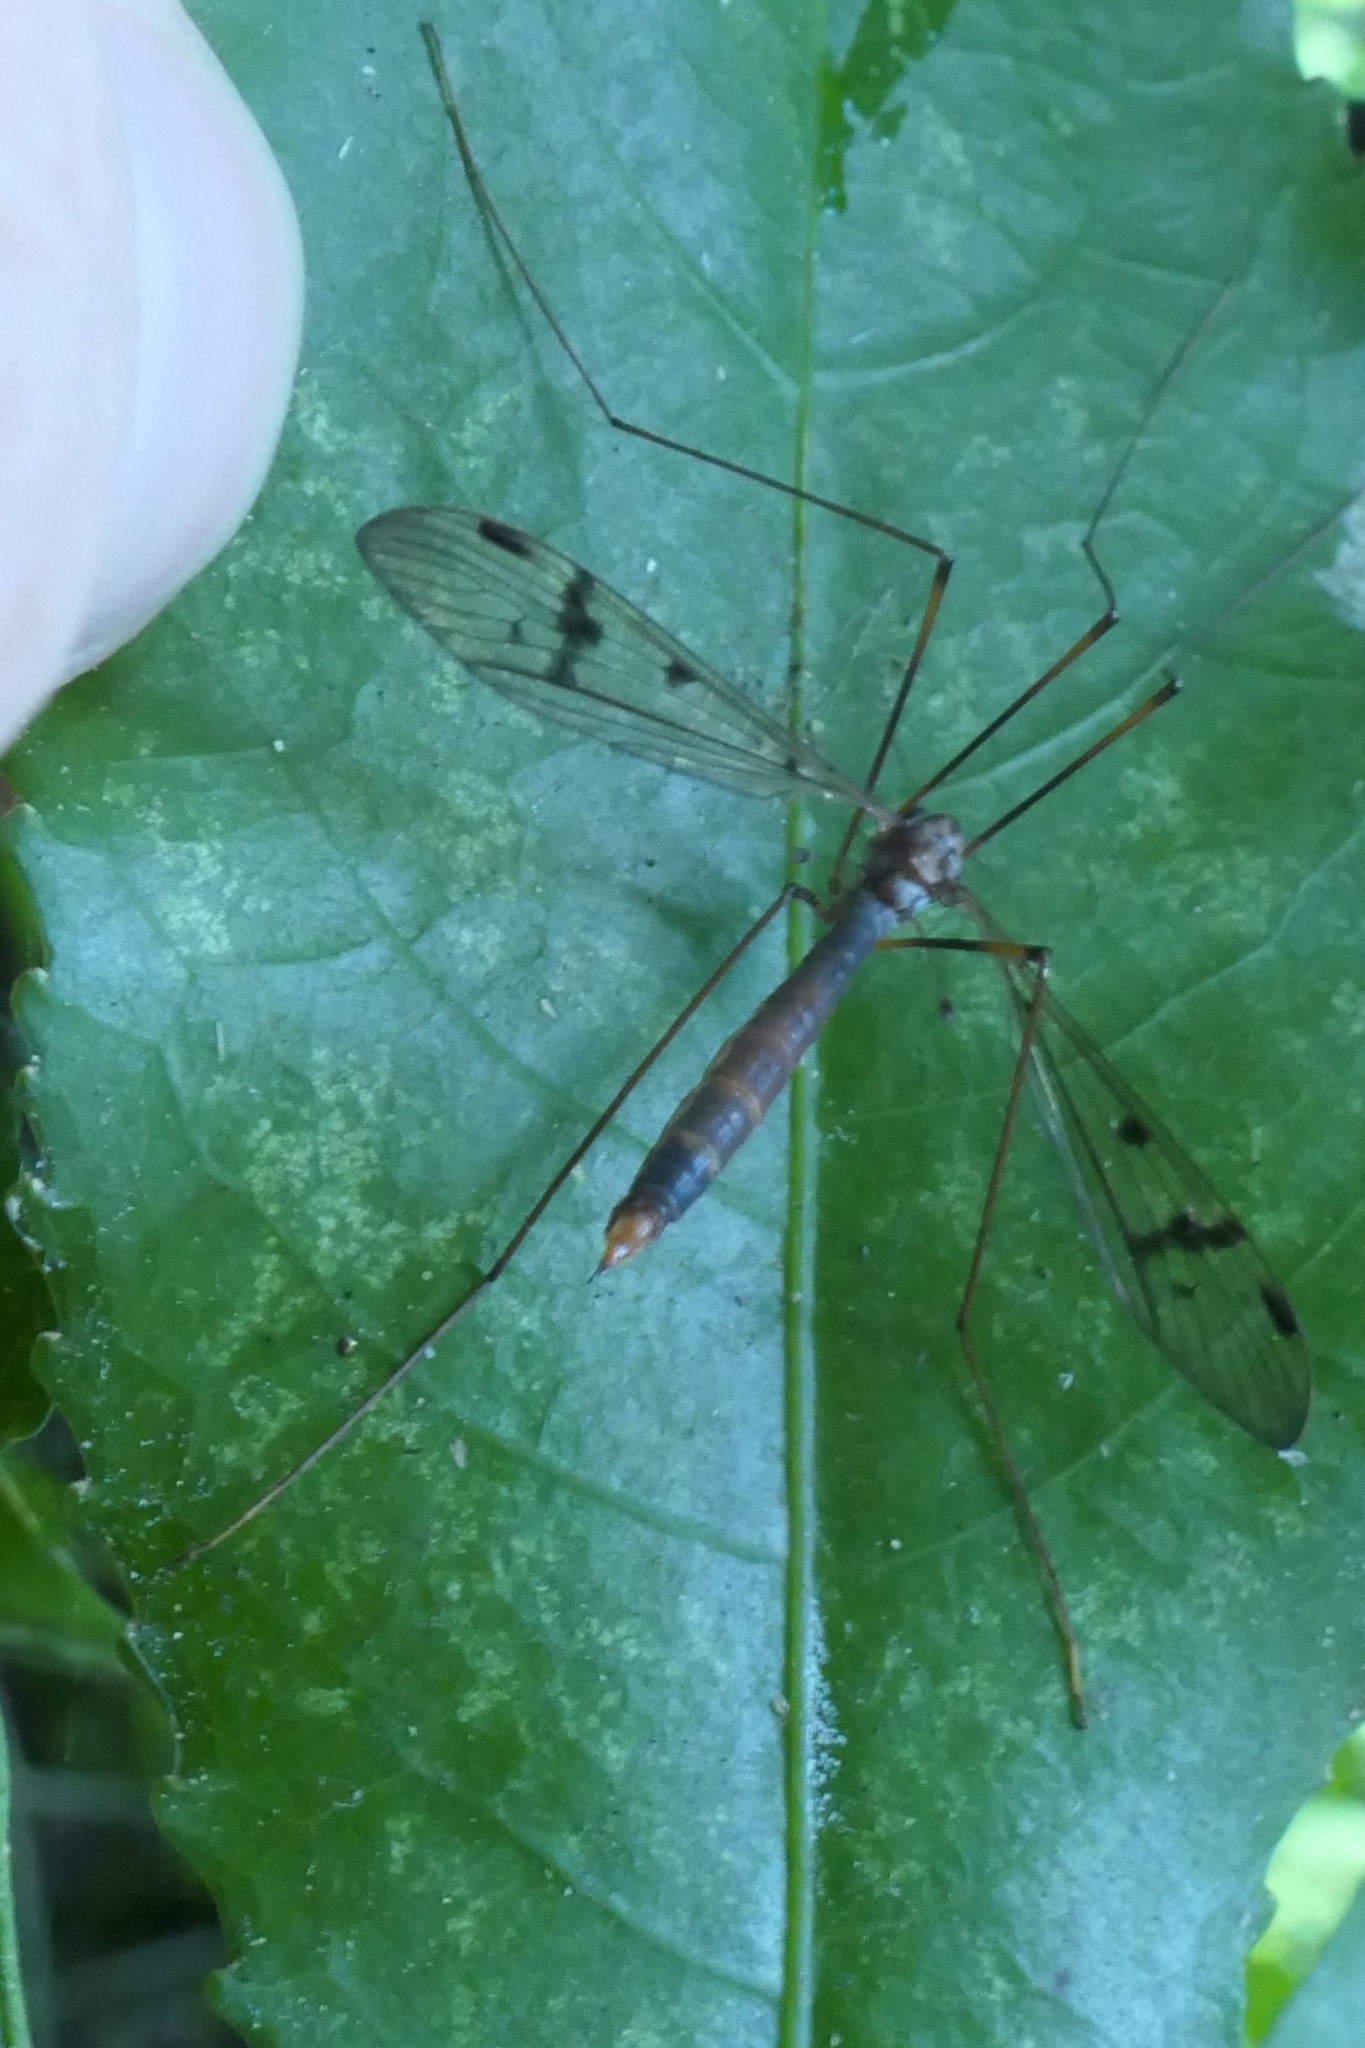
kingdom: Animalia
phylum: Arthropoda
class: Insecta
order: Diptera
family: Limoniidae
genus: Limnophilella
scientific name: Limnophilella serotina
